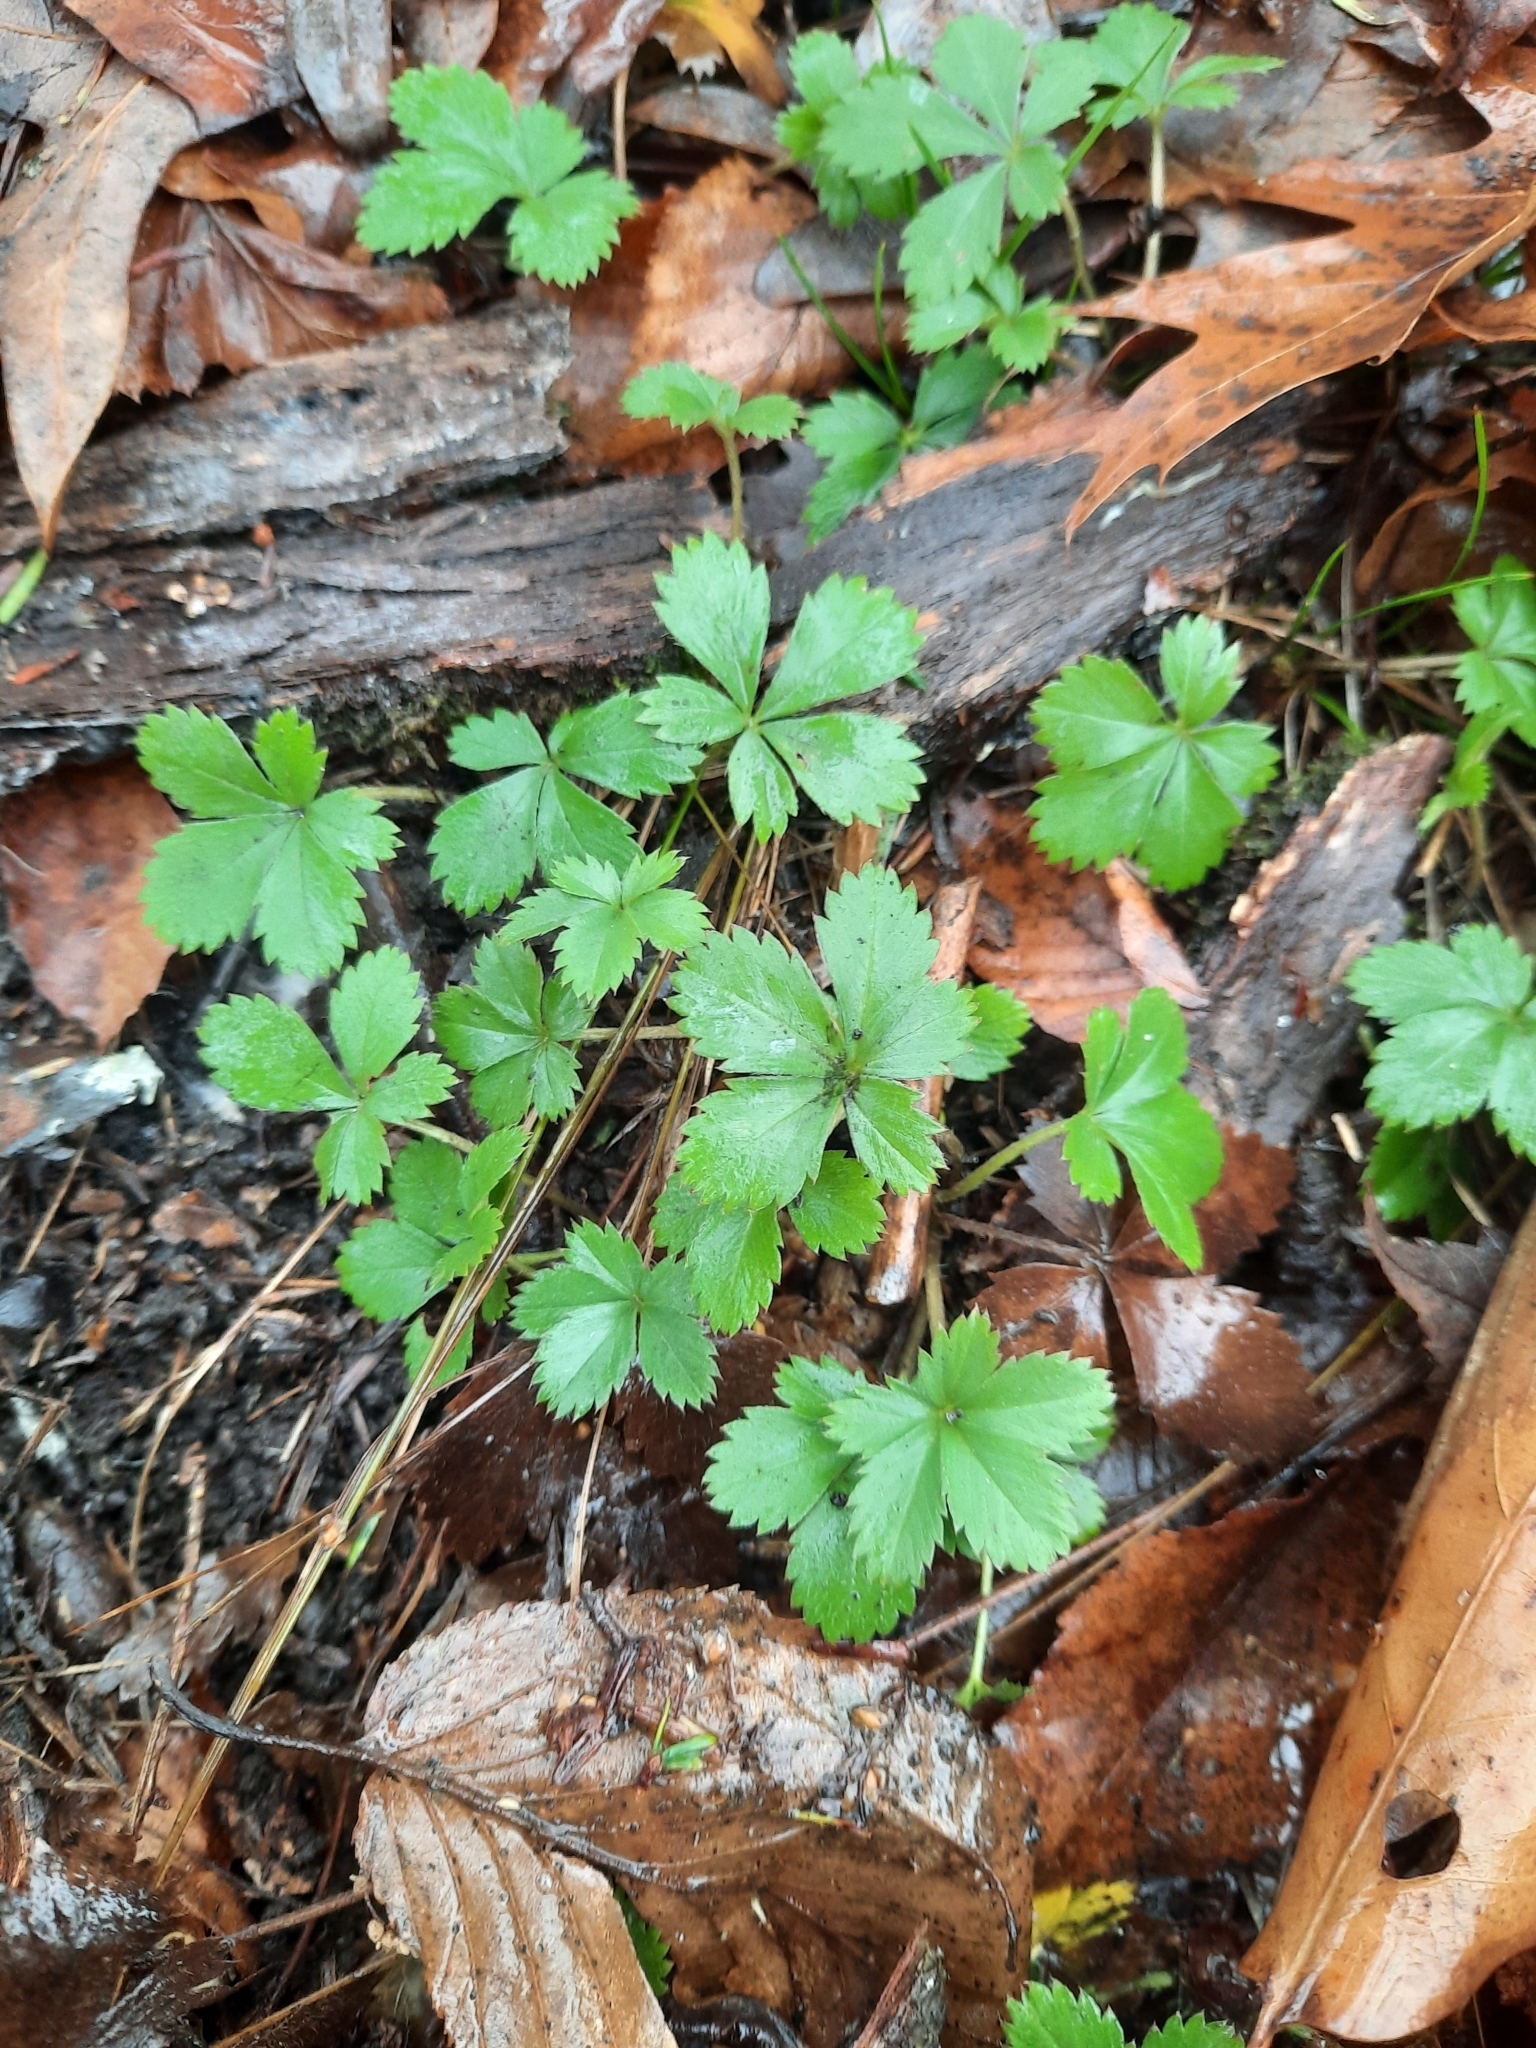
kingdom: Plantae
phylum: Tracheophyta
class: Magnoliopsida
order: Rosales
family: Rosaceae
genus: Potentilla
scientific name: Potentilla canadensis
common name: Canada cinquefoil
